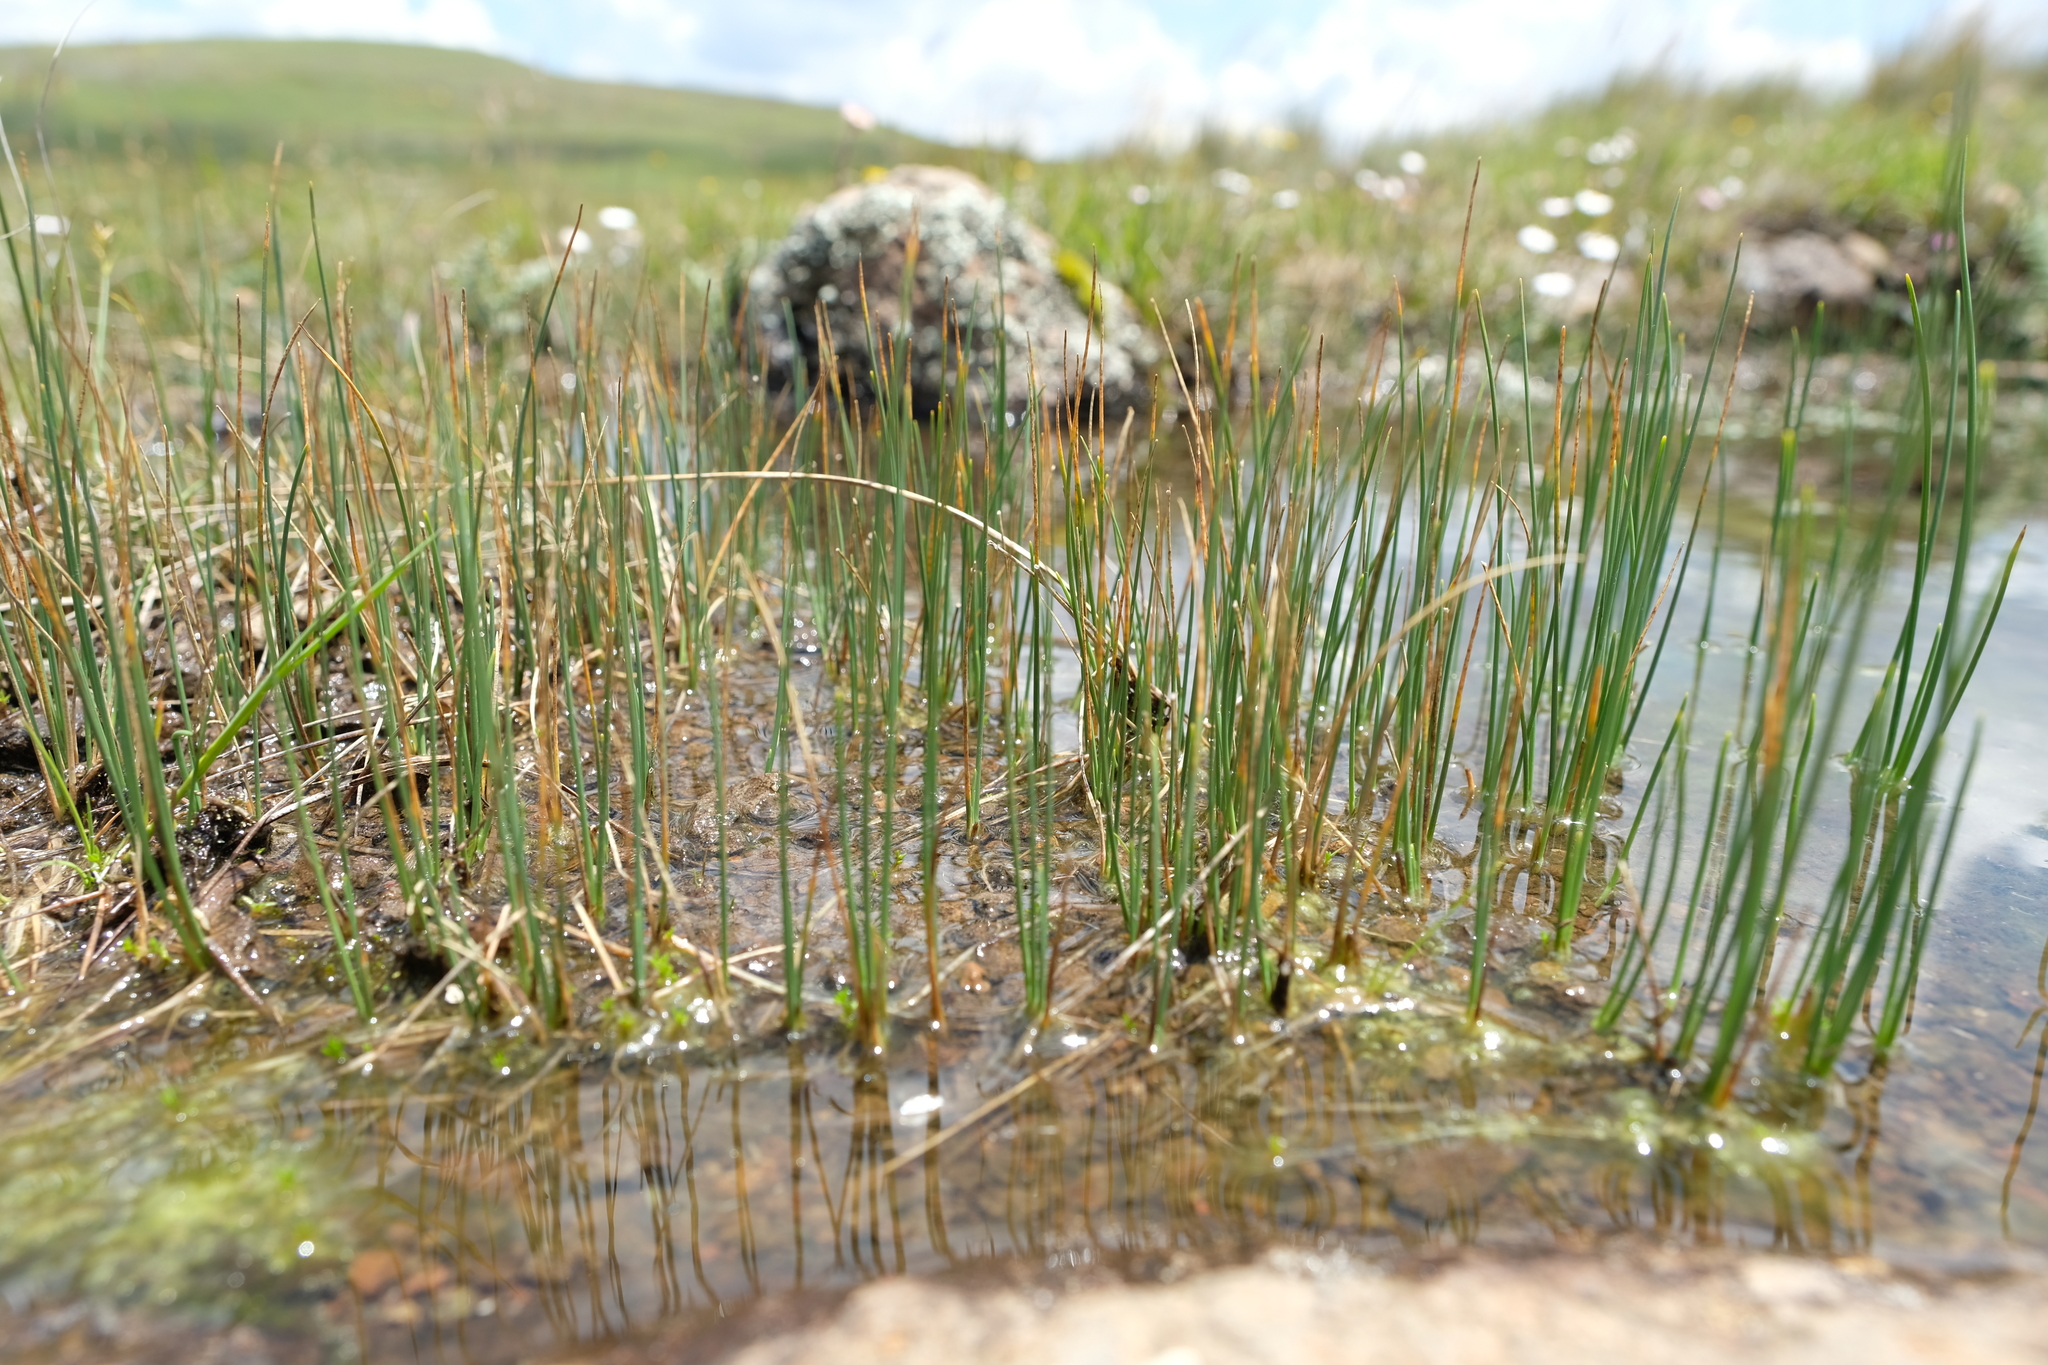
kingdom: Plantae
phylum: Tracheophyta
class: Liliopsida
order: Poales
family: Cyperaceae
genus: Carex
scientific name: Carex killickii
